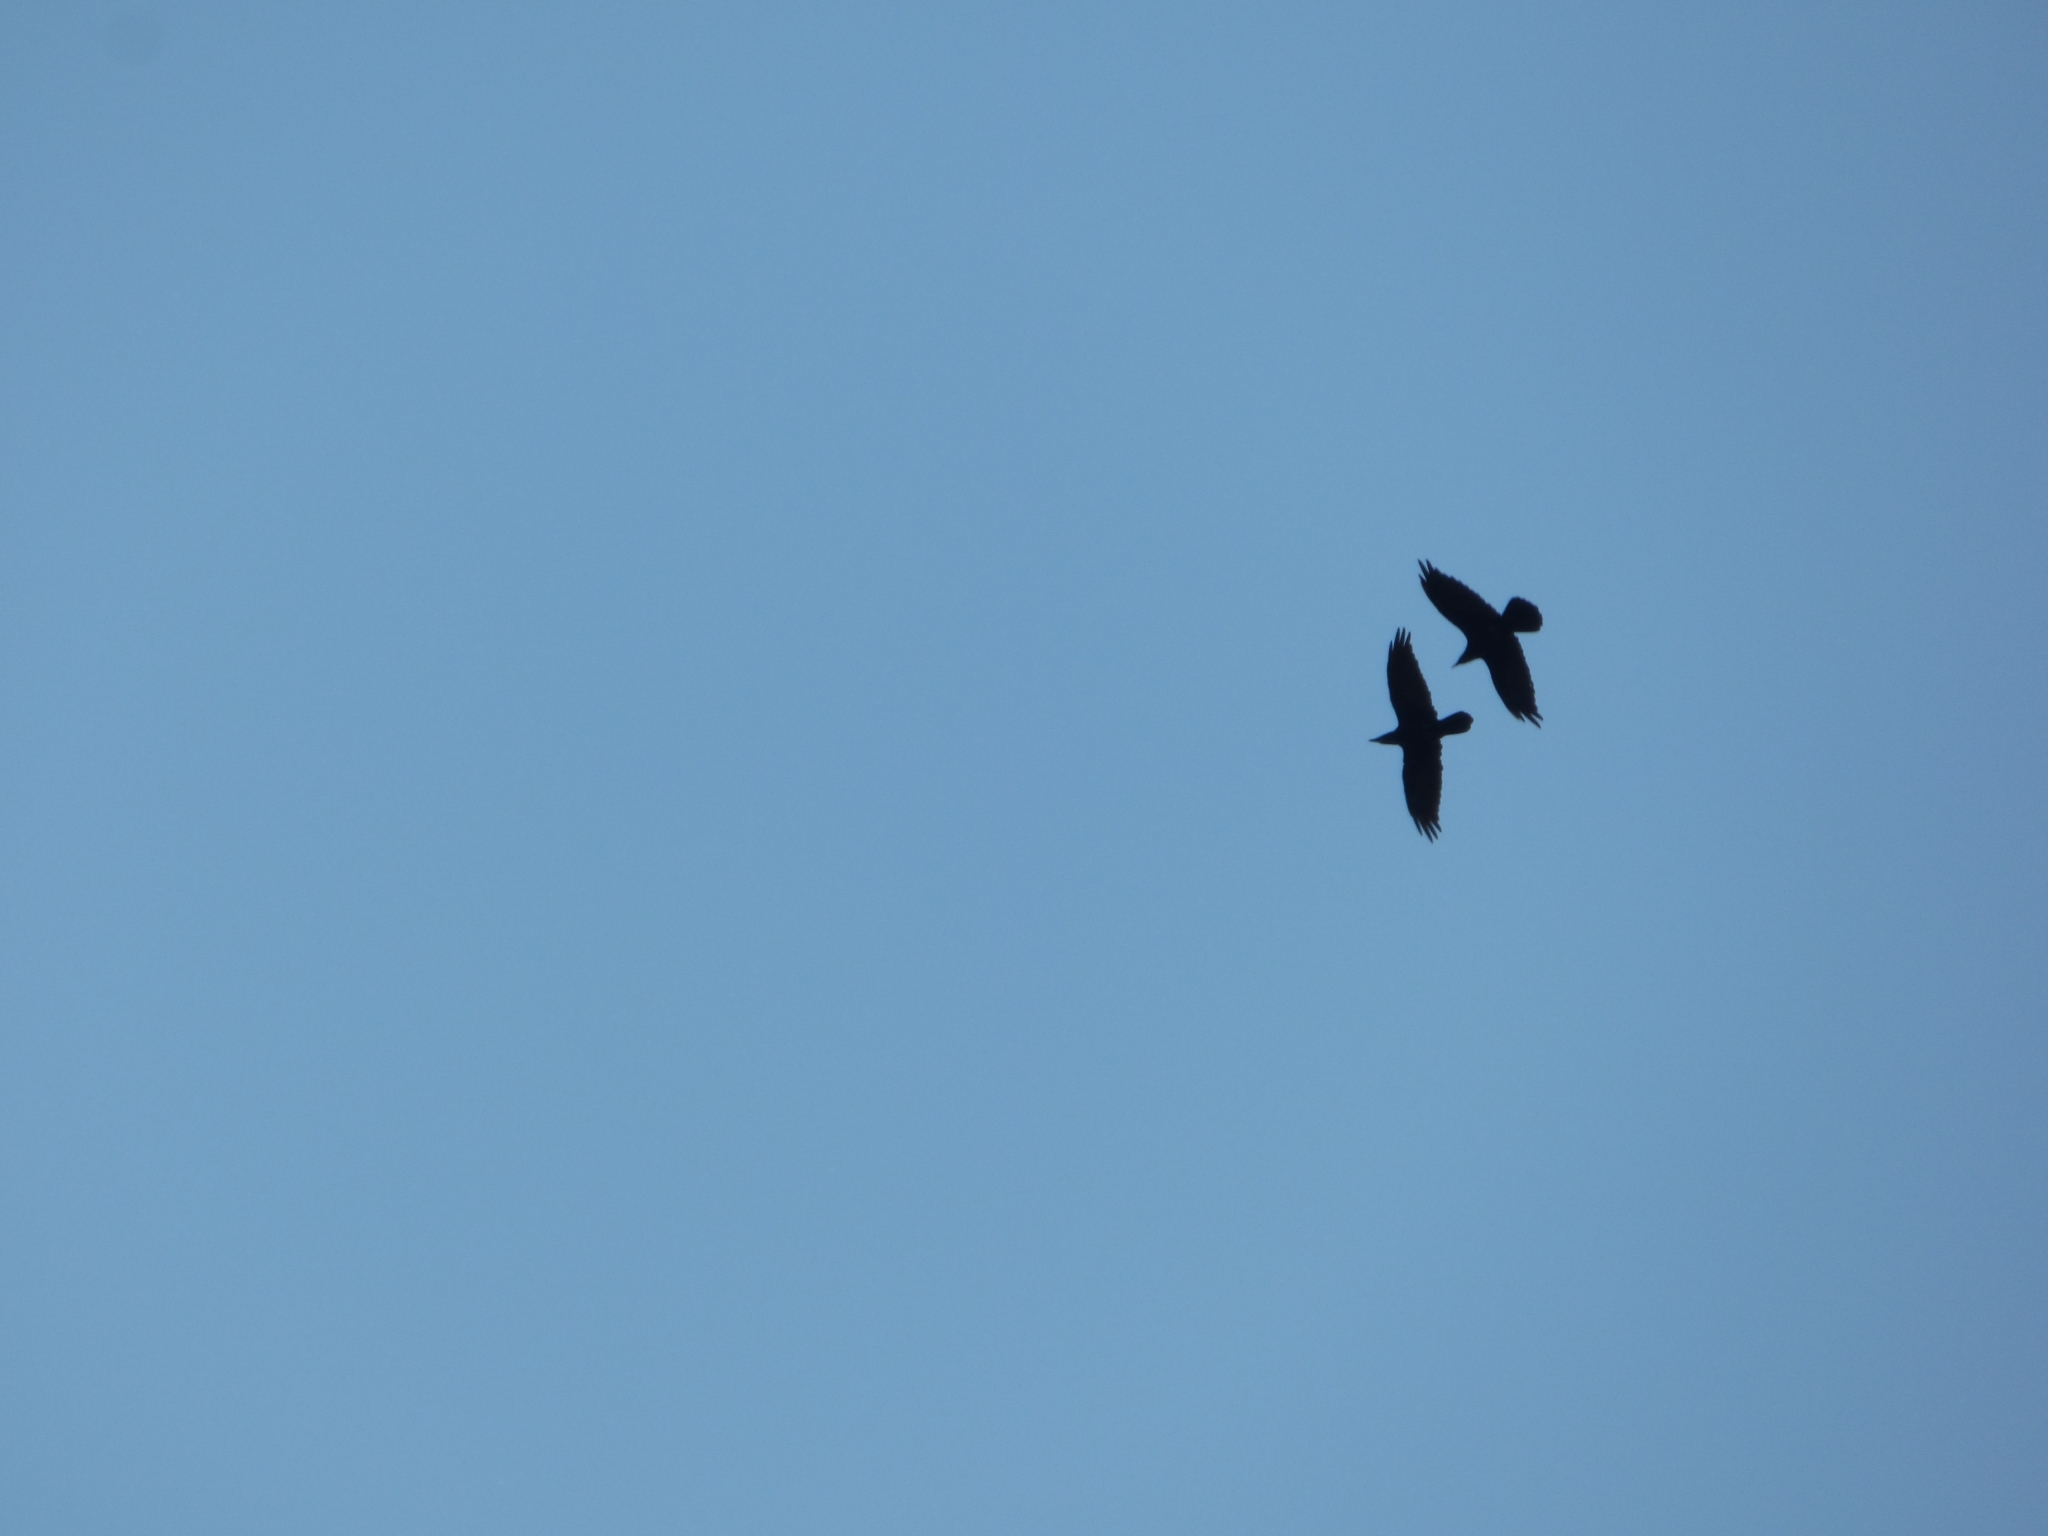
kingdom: Animalia
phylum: Chordata
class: Aves
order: Passeriformes
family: Corvidae
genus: Corvus
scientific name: Corvus corax
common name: Common raven
